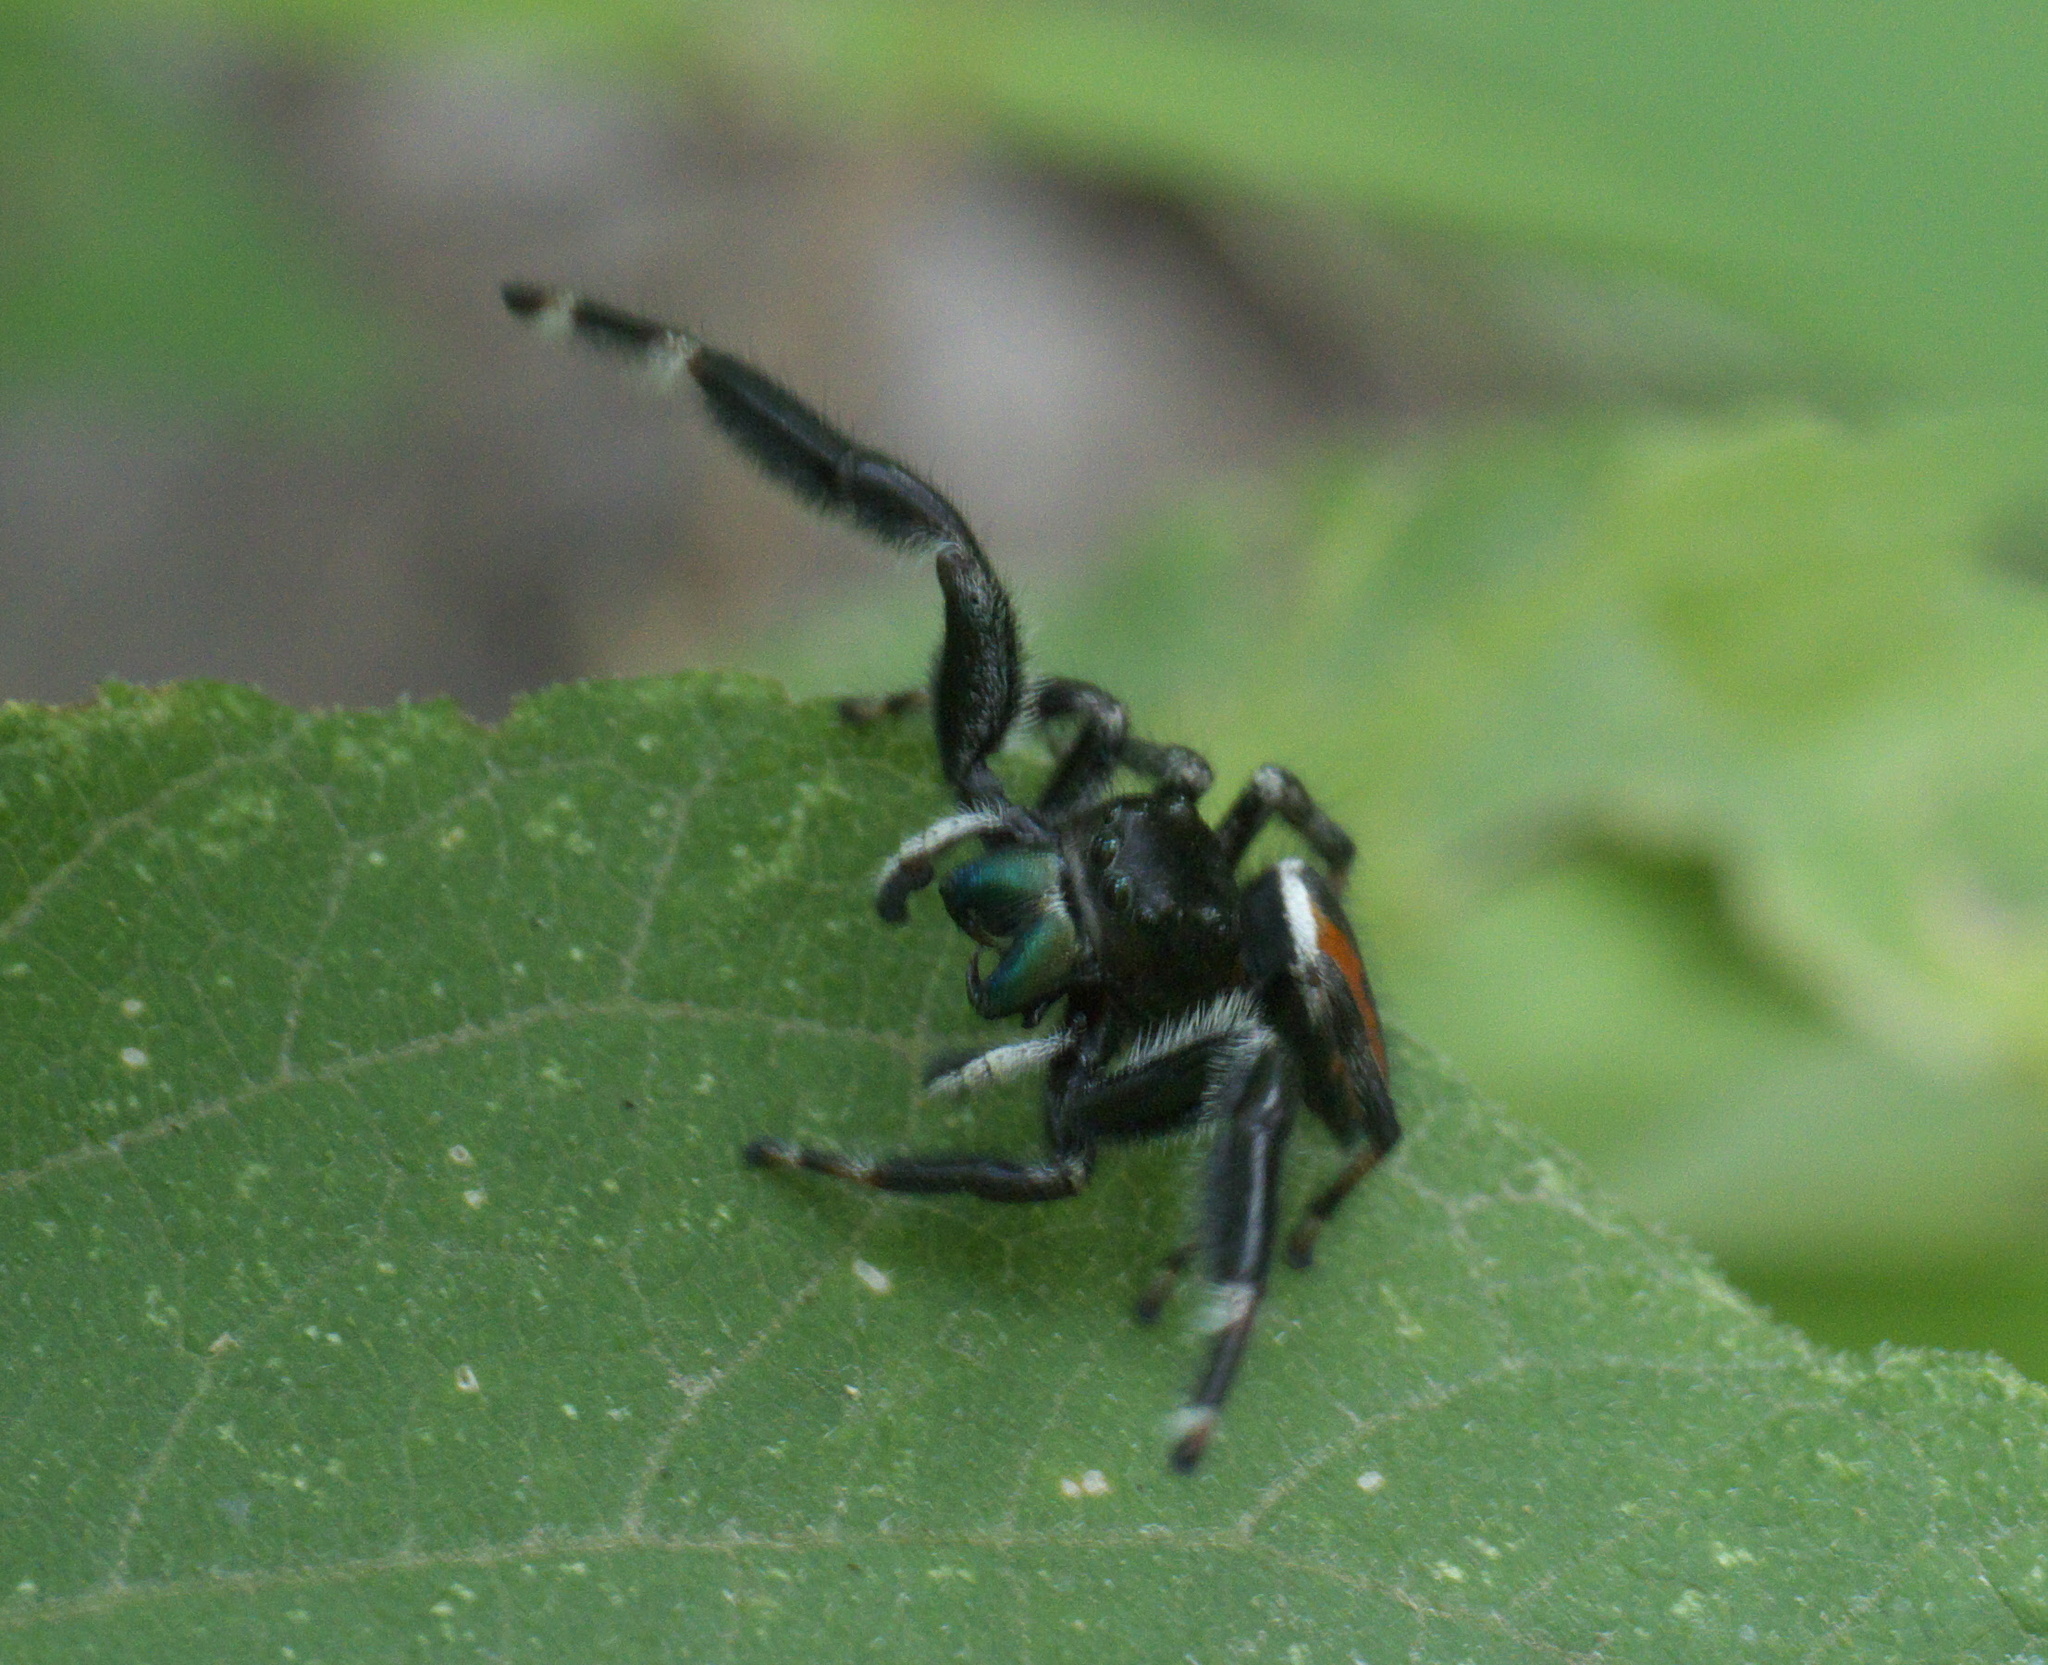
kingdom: Animalia
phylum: Arthropoda
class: Arachnida
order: Araneae
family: Salticidae
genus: Phidippus
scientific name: Phidippus clarus
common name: Brilliant jumping spider
